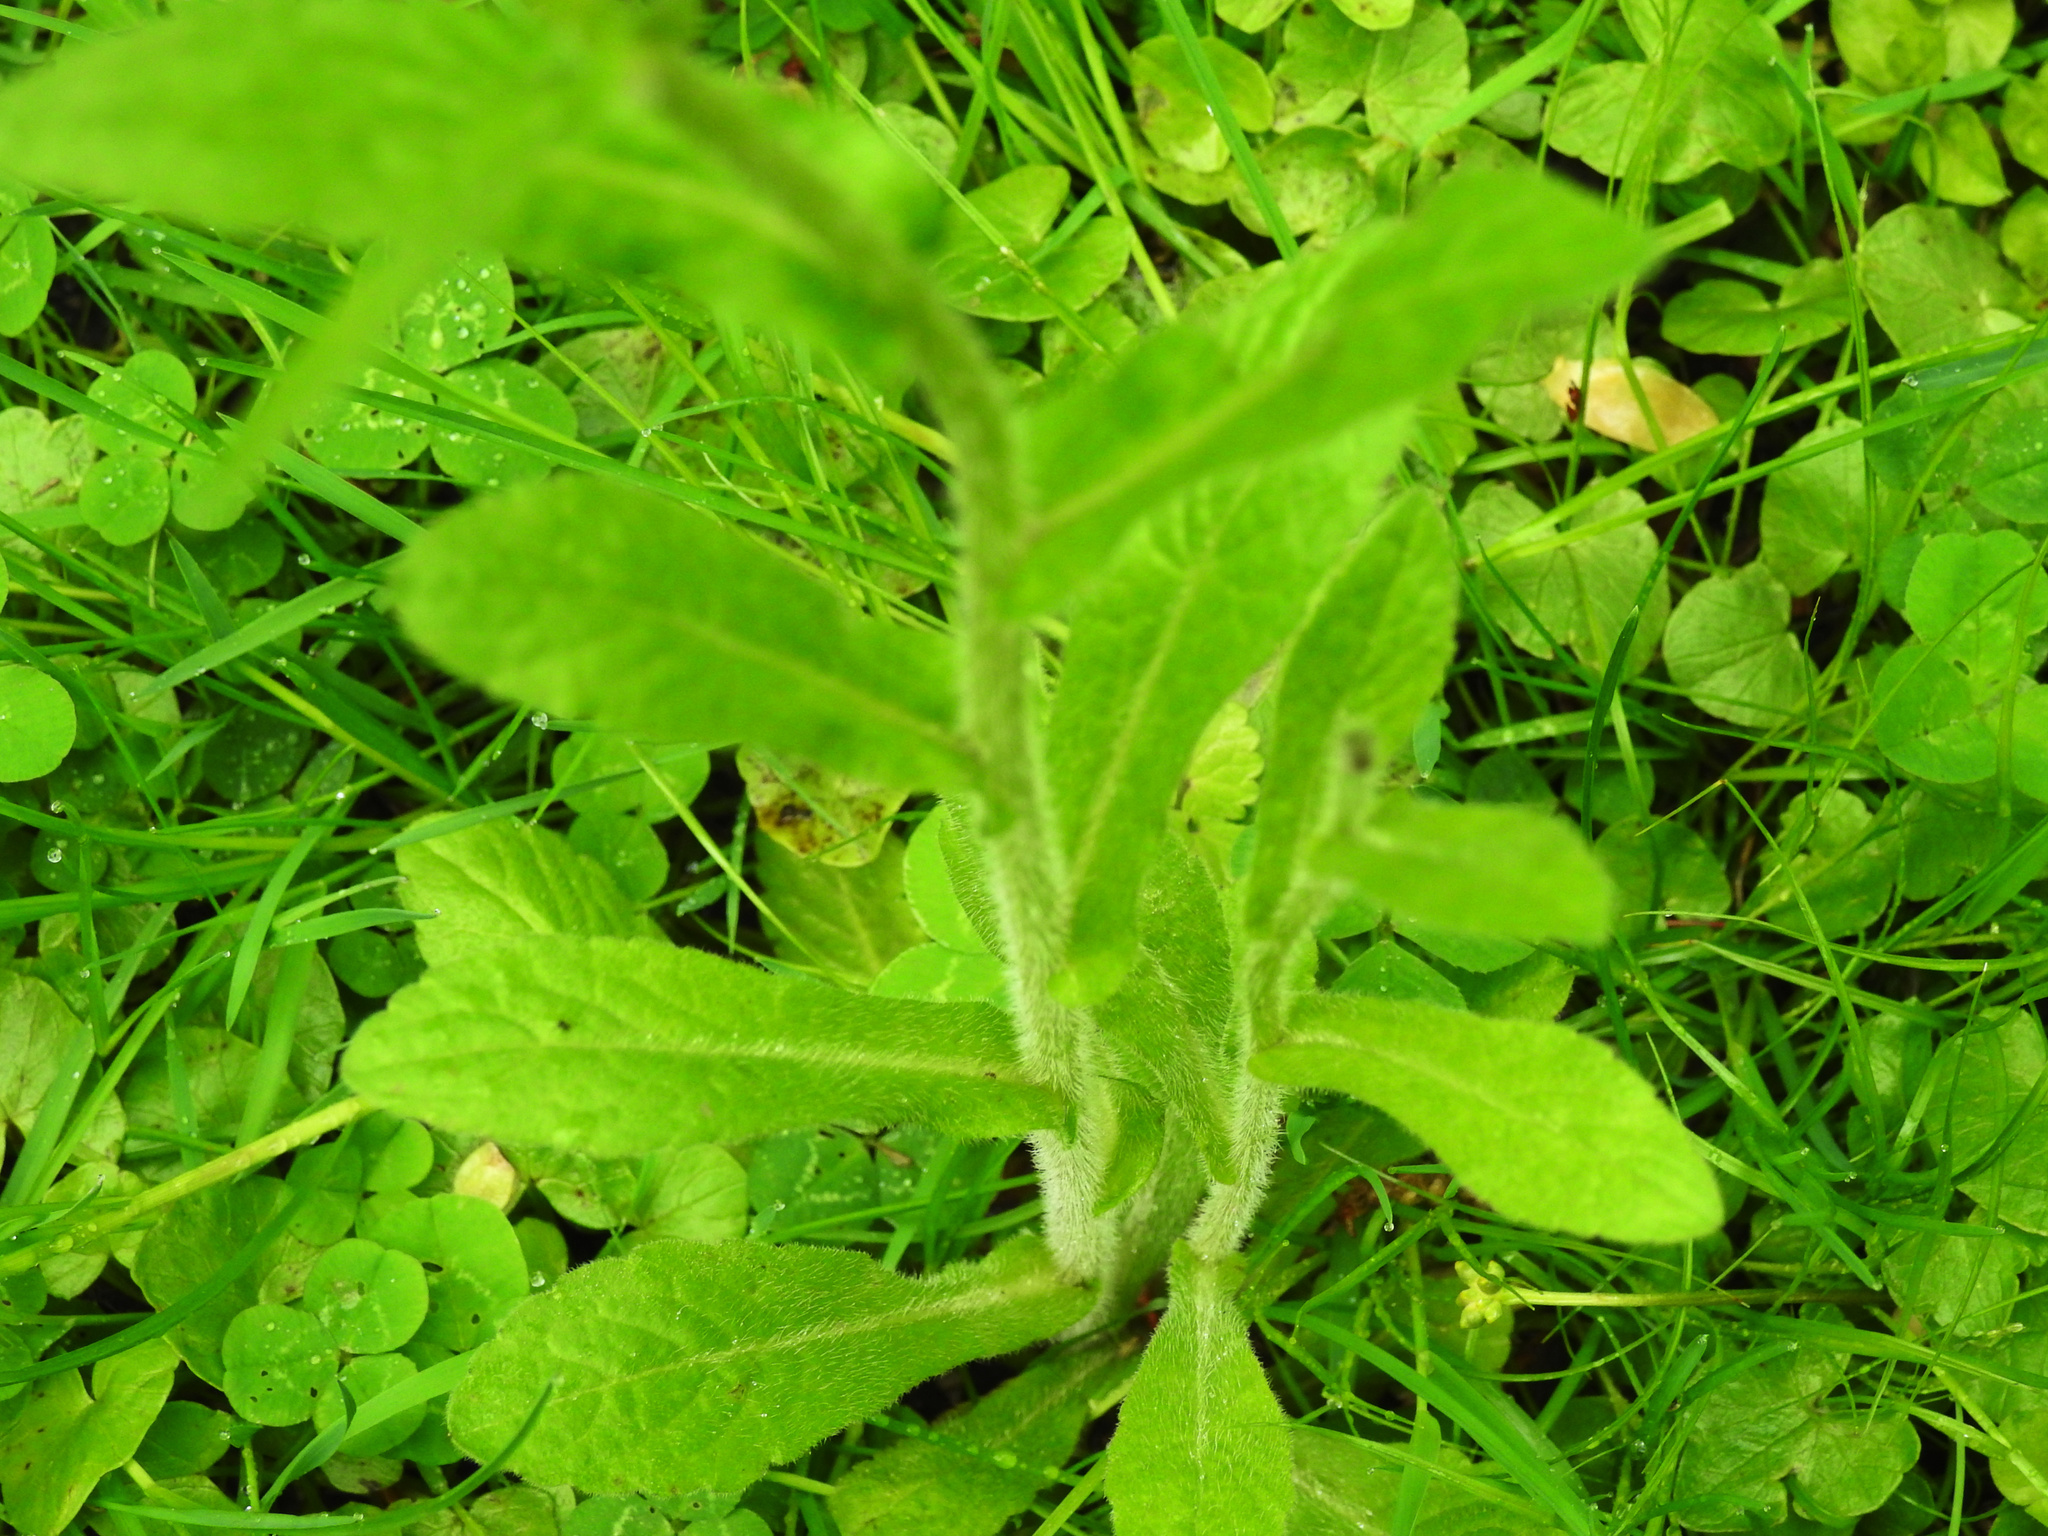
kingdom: Plantae
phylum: Tracheophyta
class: Magnoliopsida
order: Asterales
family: Asteraceae
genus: Erigeron
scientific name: Erigeron philadelphicus
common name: Robin's-plantain
